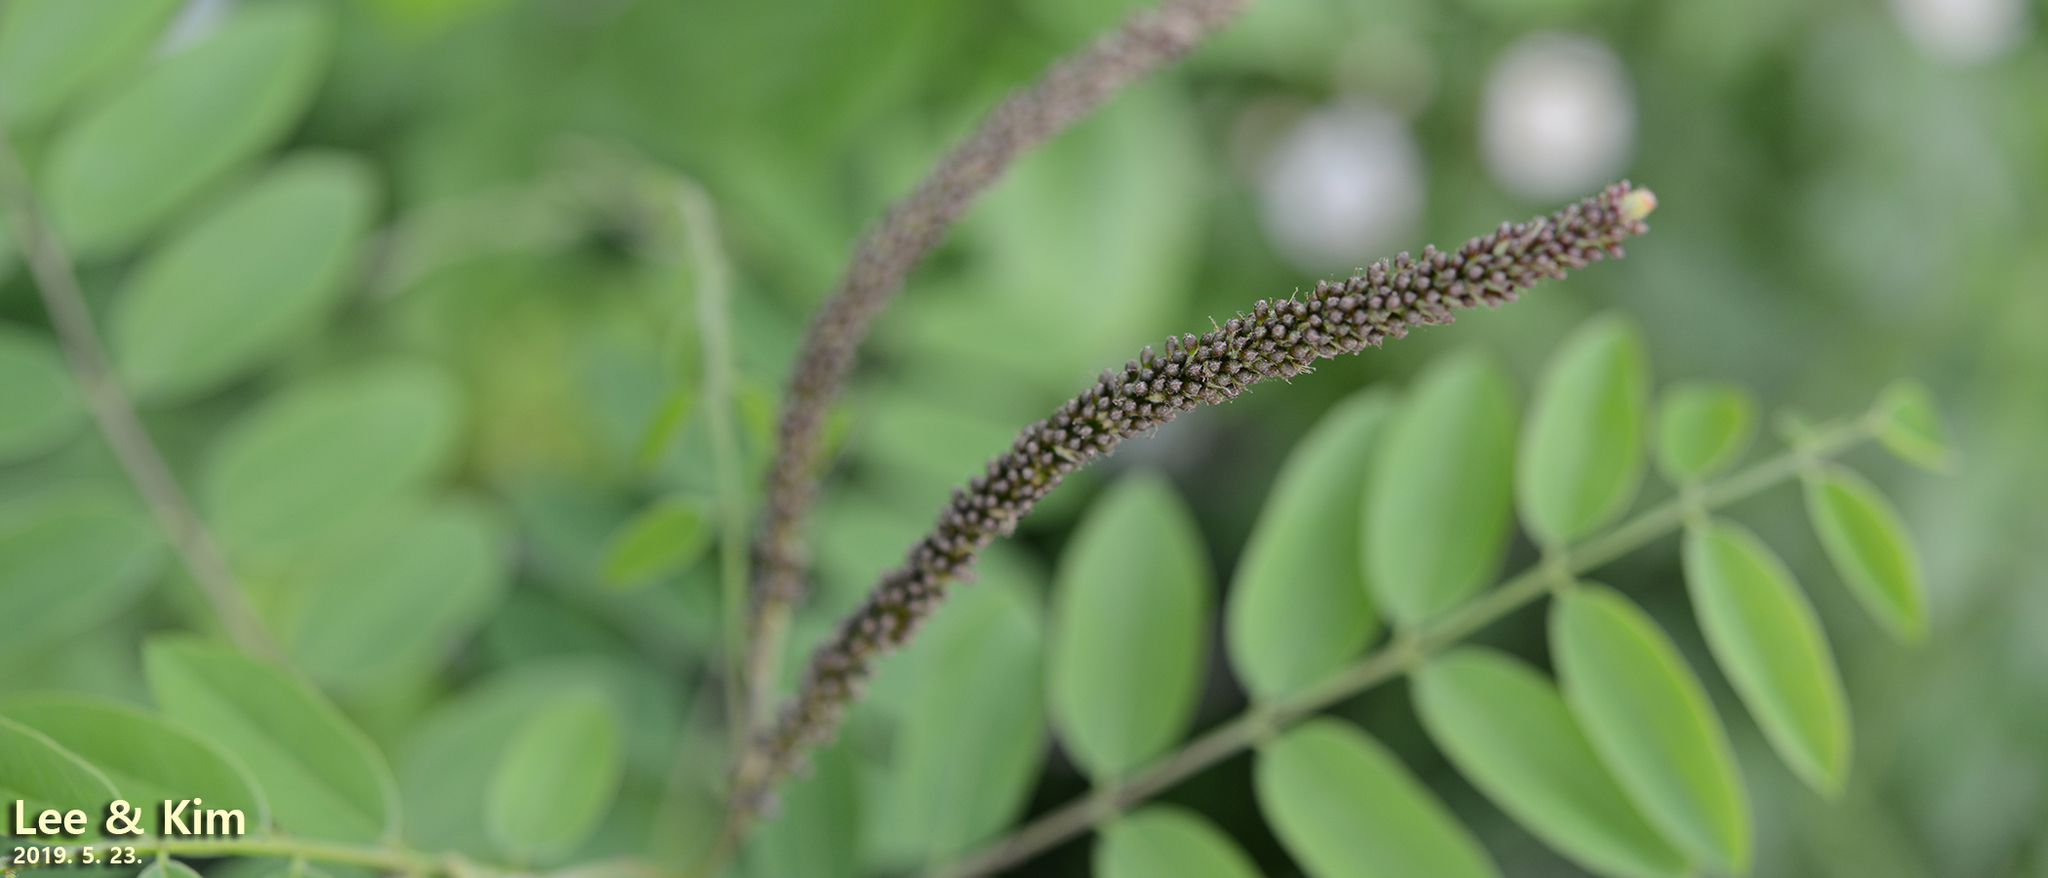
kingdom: Plantae
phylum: Tracheophyta
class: Magnoliopsida
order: Fabales
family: Fabaceae
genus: Amorpha
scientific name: Amorpha fruticosa
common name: False indigo
